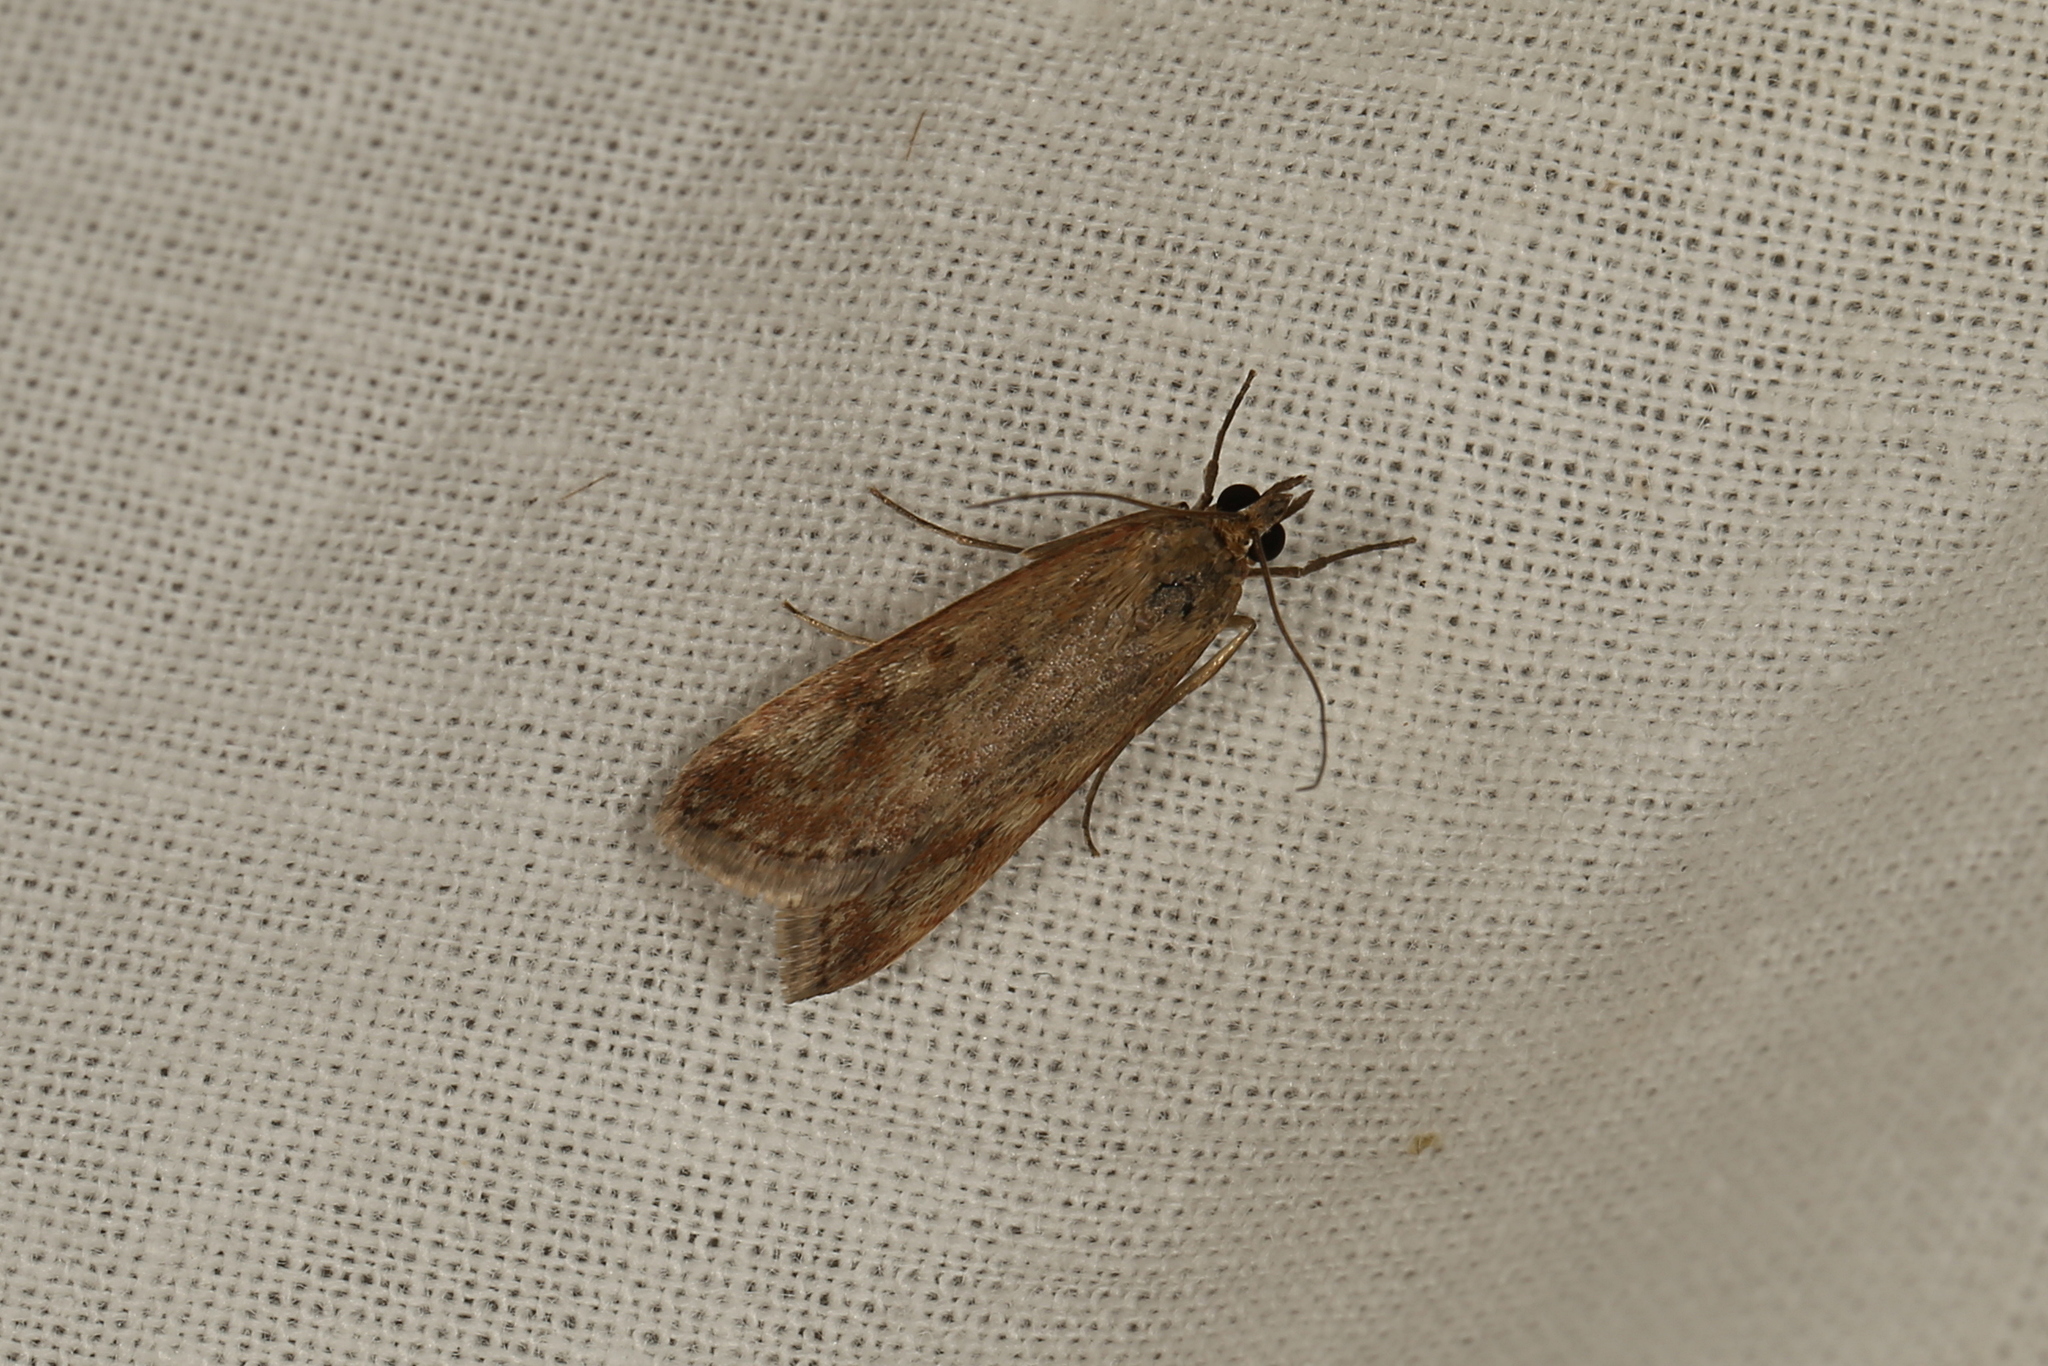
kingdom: Animalia
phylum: Arthropoda
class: Insecta
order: Lepidoptera
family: Crambidae
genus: Achyra
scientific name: Achyra affinitalis
